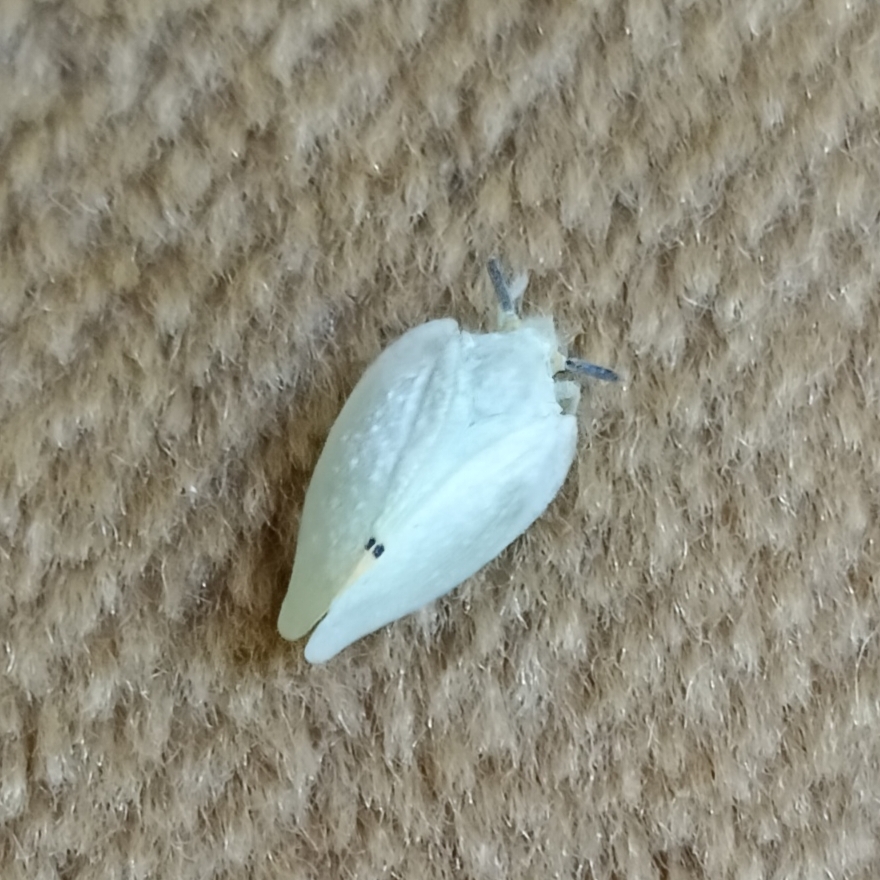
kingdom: Animalia
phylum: Arthropoda
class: Insecta
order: Hemiptera
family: Flatidae
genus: Dalapax
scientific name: Dalapax postica
